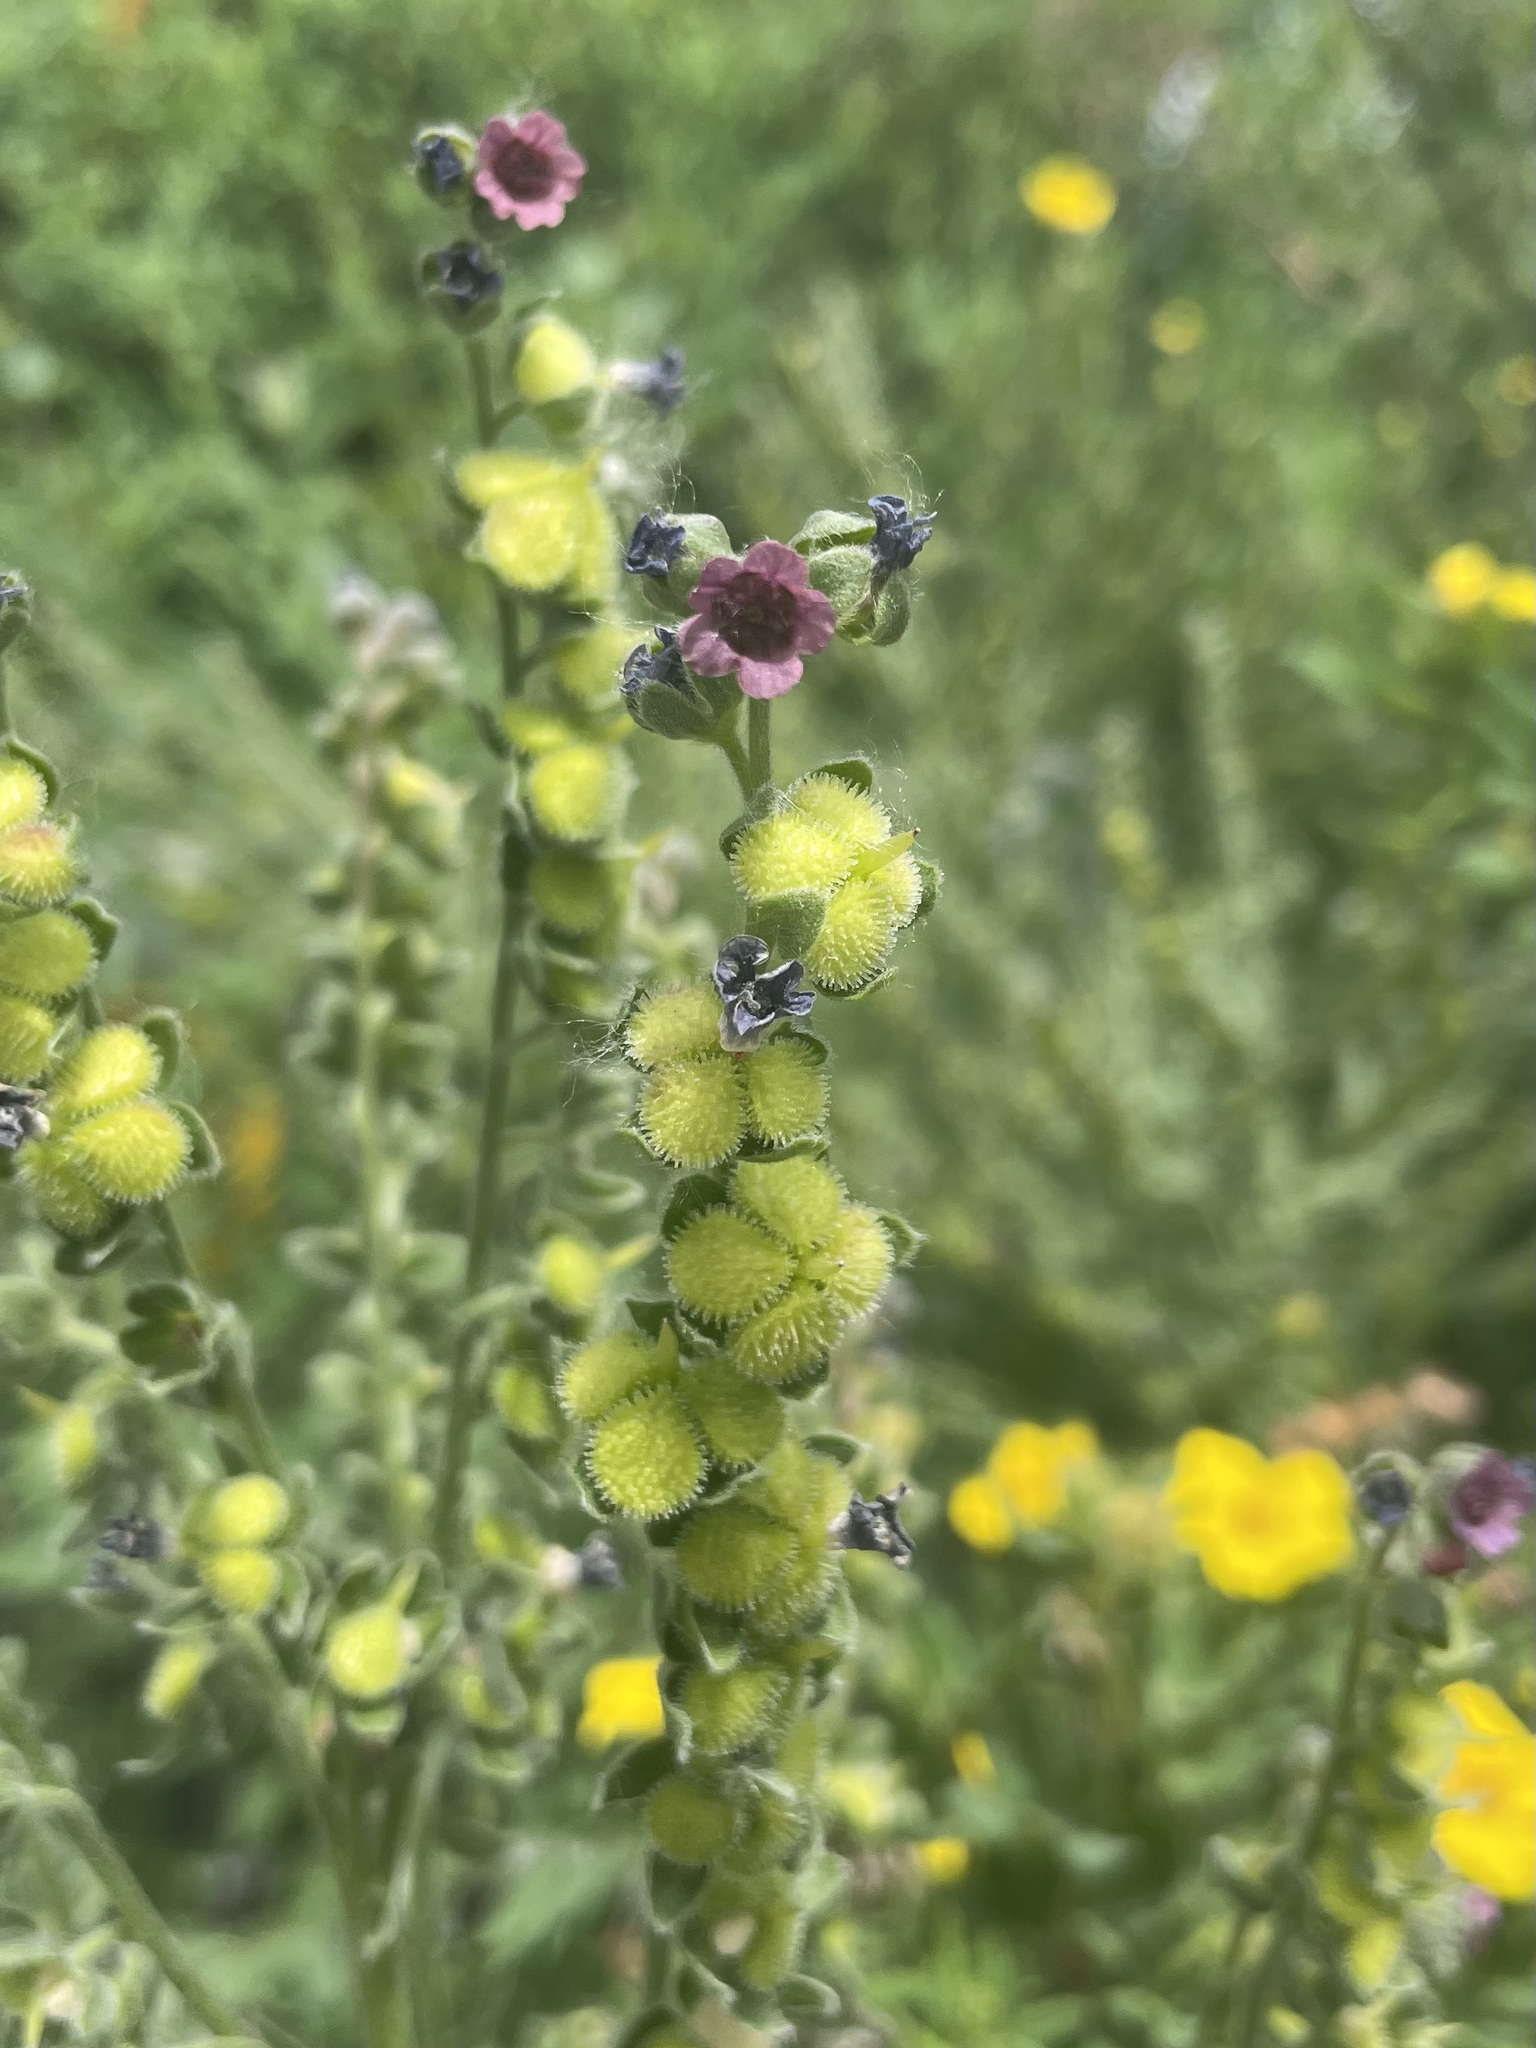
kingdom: Plantae
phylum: Tracheophyta
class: Magnoliopsida
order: Boraginales
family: Boraginaceae
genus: Cynoglossum
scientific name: Cynoglossum officinale
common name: Hound's-tongue
